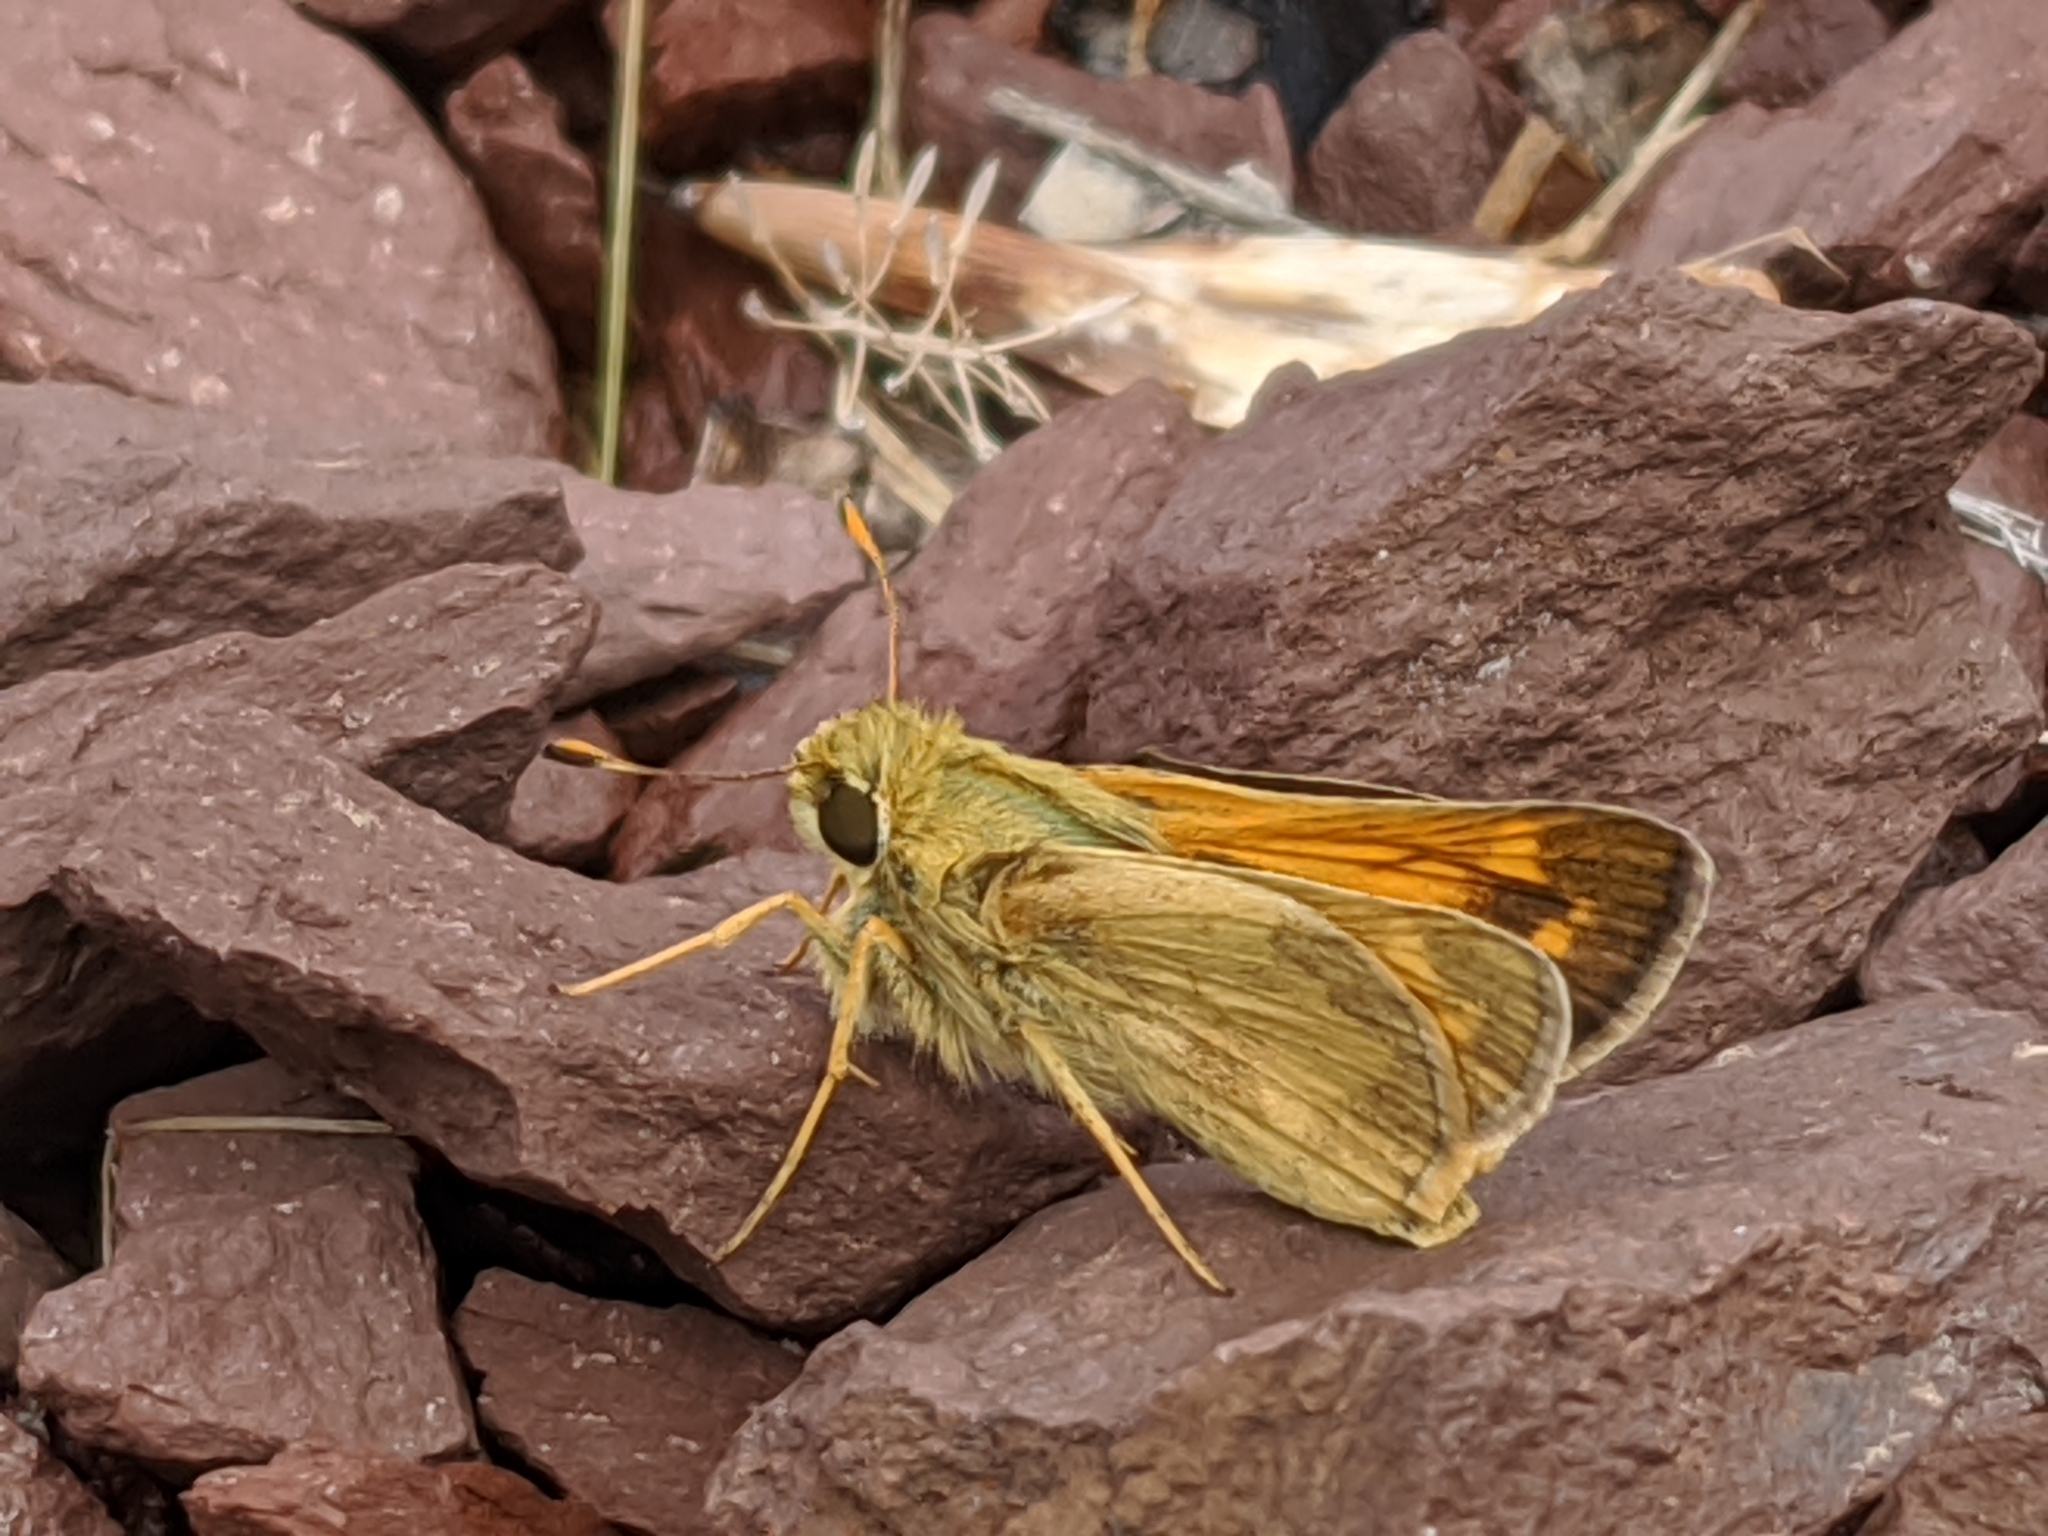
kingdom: Animalia
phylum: Arthropoda
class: Insecta
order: Lepidoptera
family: Hesperiidae
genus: Atalopedes
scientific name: Atalopedes
